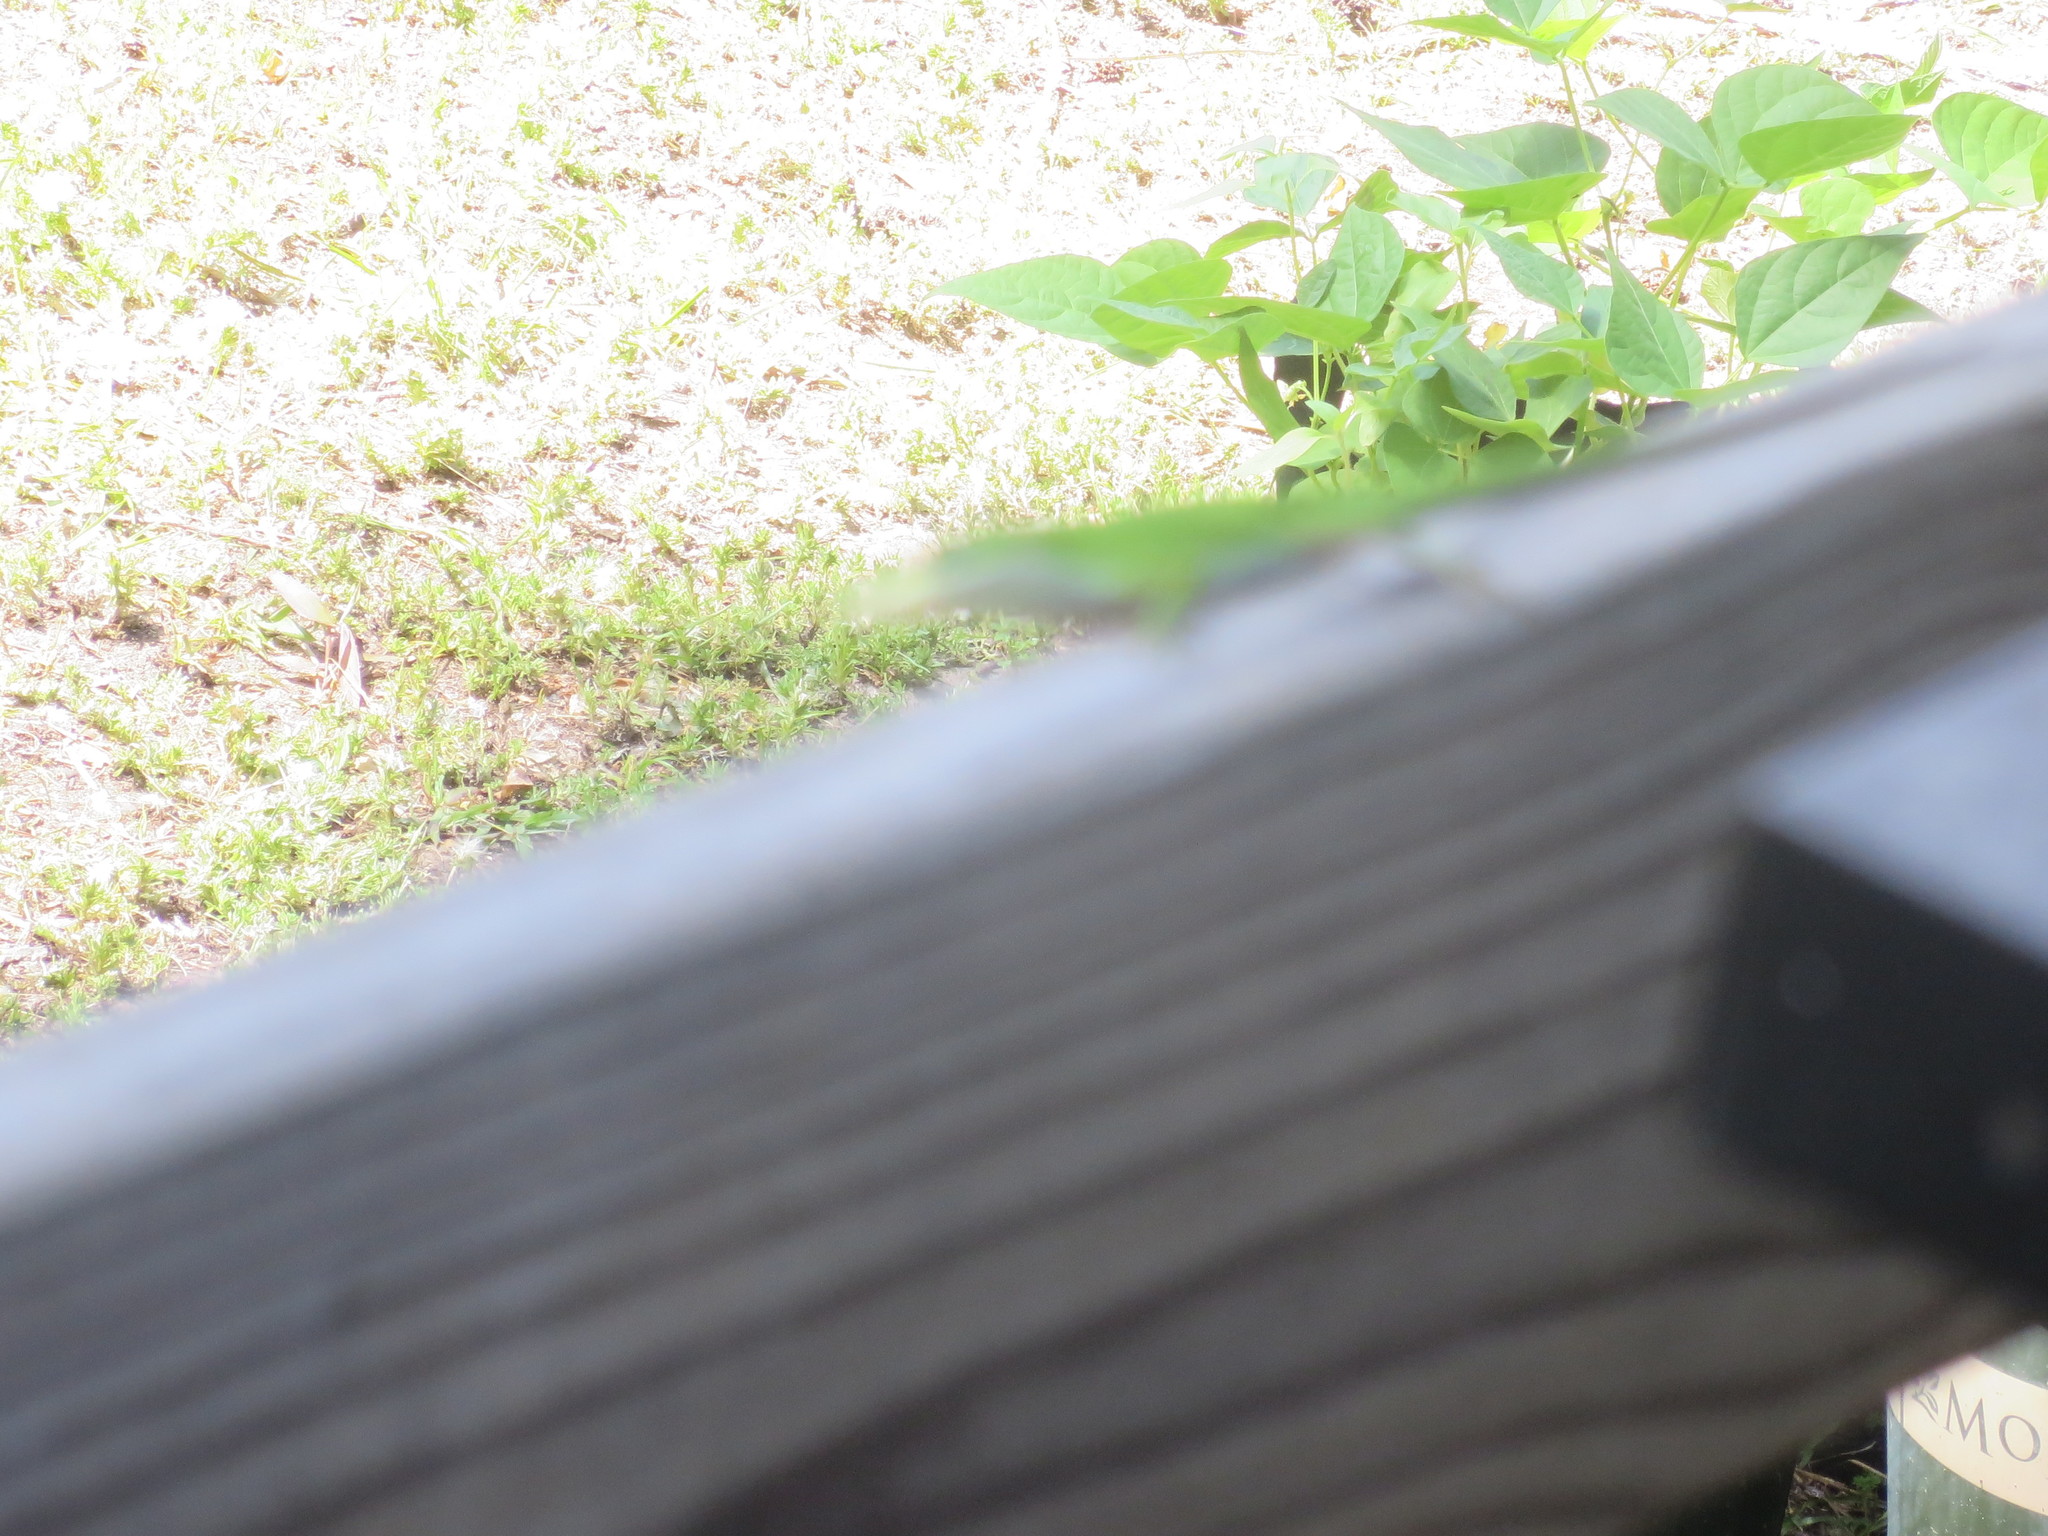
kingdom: Animalia
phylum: Chordata
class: Squamata
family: Dactyloidae
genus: Anolis
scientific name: Anolis carolinensis
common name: Green anole
